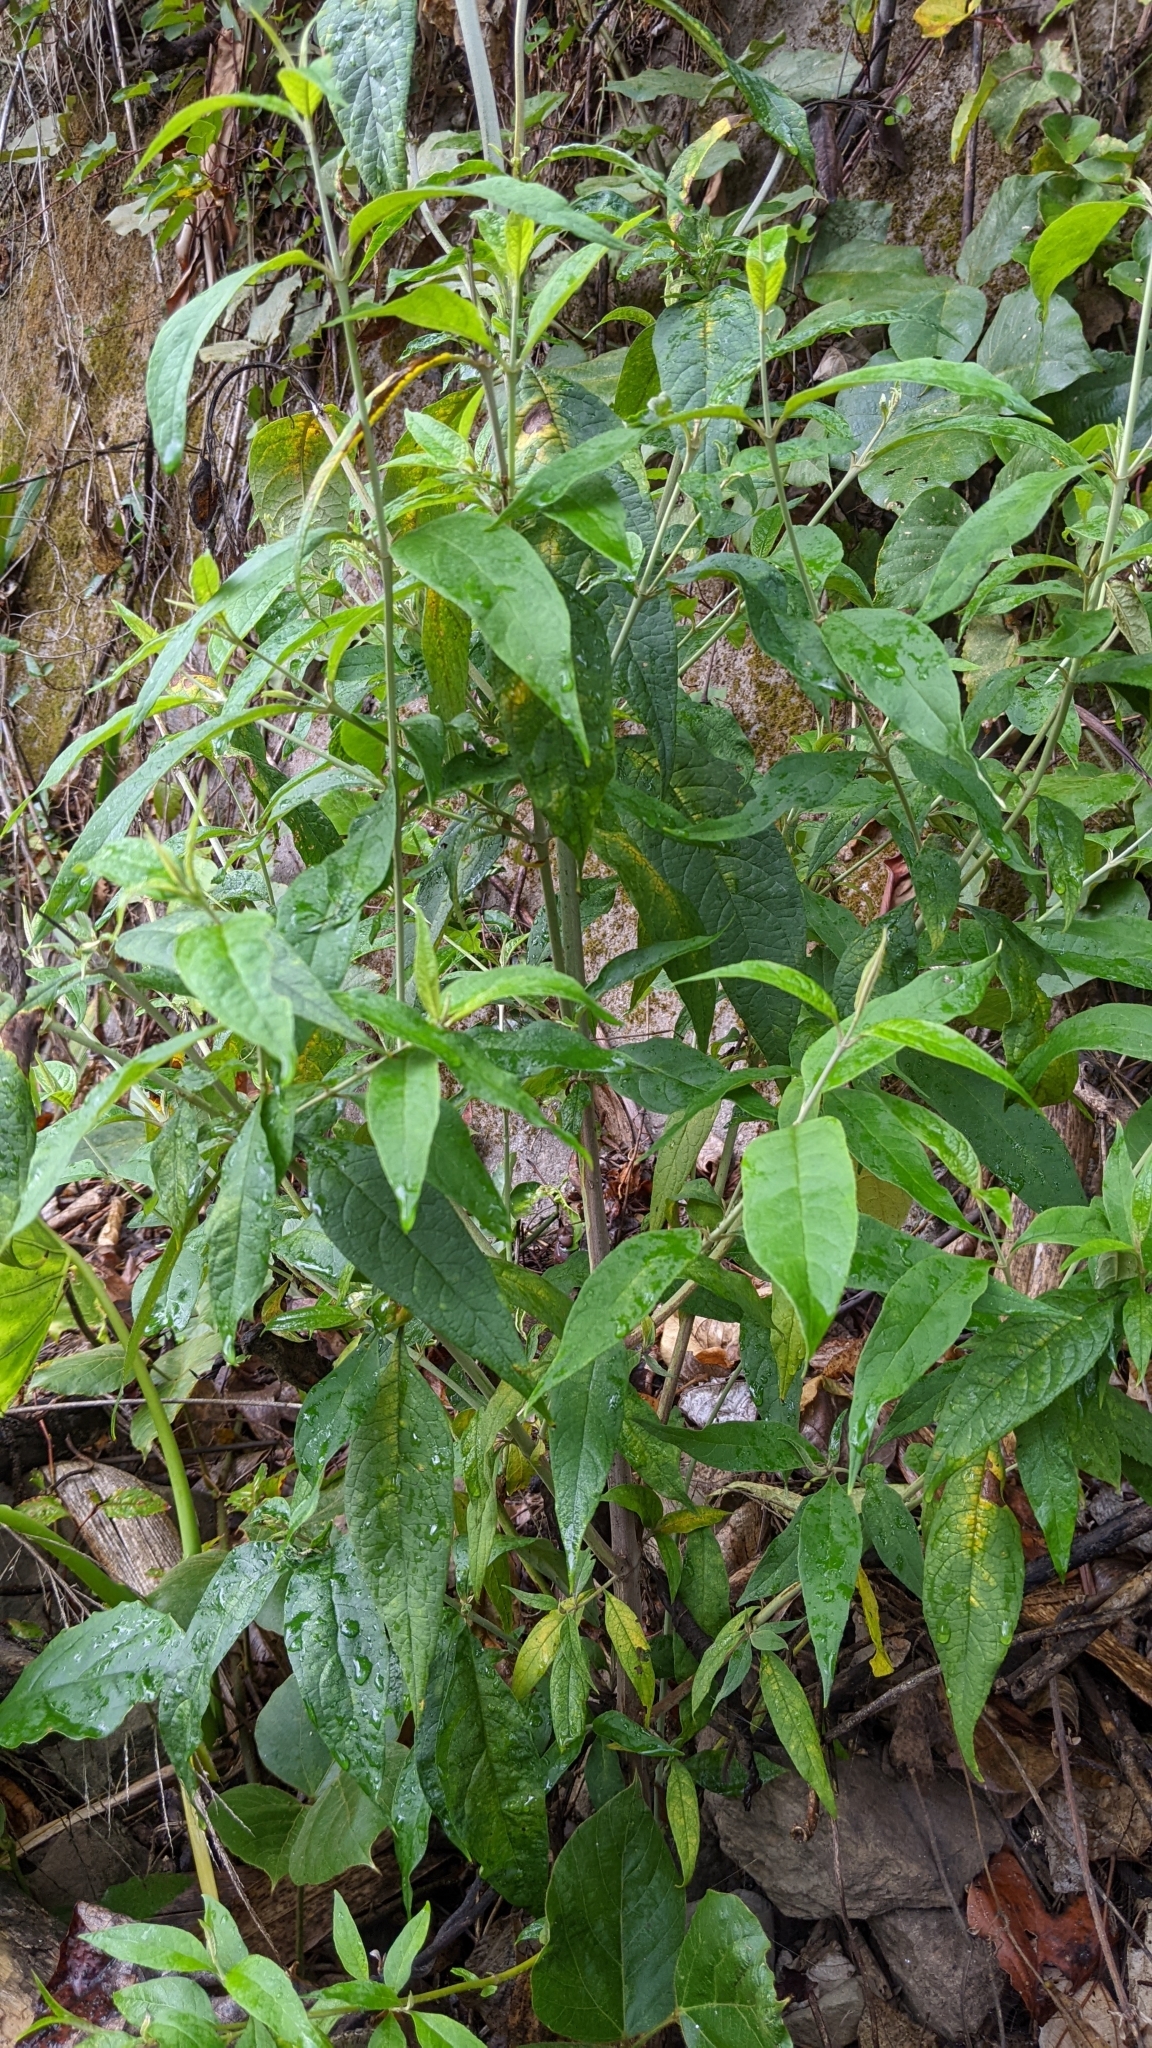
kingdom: Plantae
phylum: Tracheophyta
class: Magnoliopsida
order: Lamiales
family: Scrophulariaceae
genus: Buddleja
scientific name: Buddleja asiatica
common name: Dog tail
